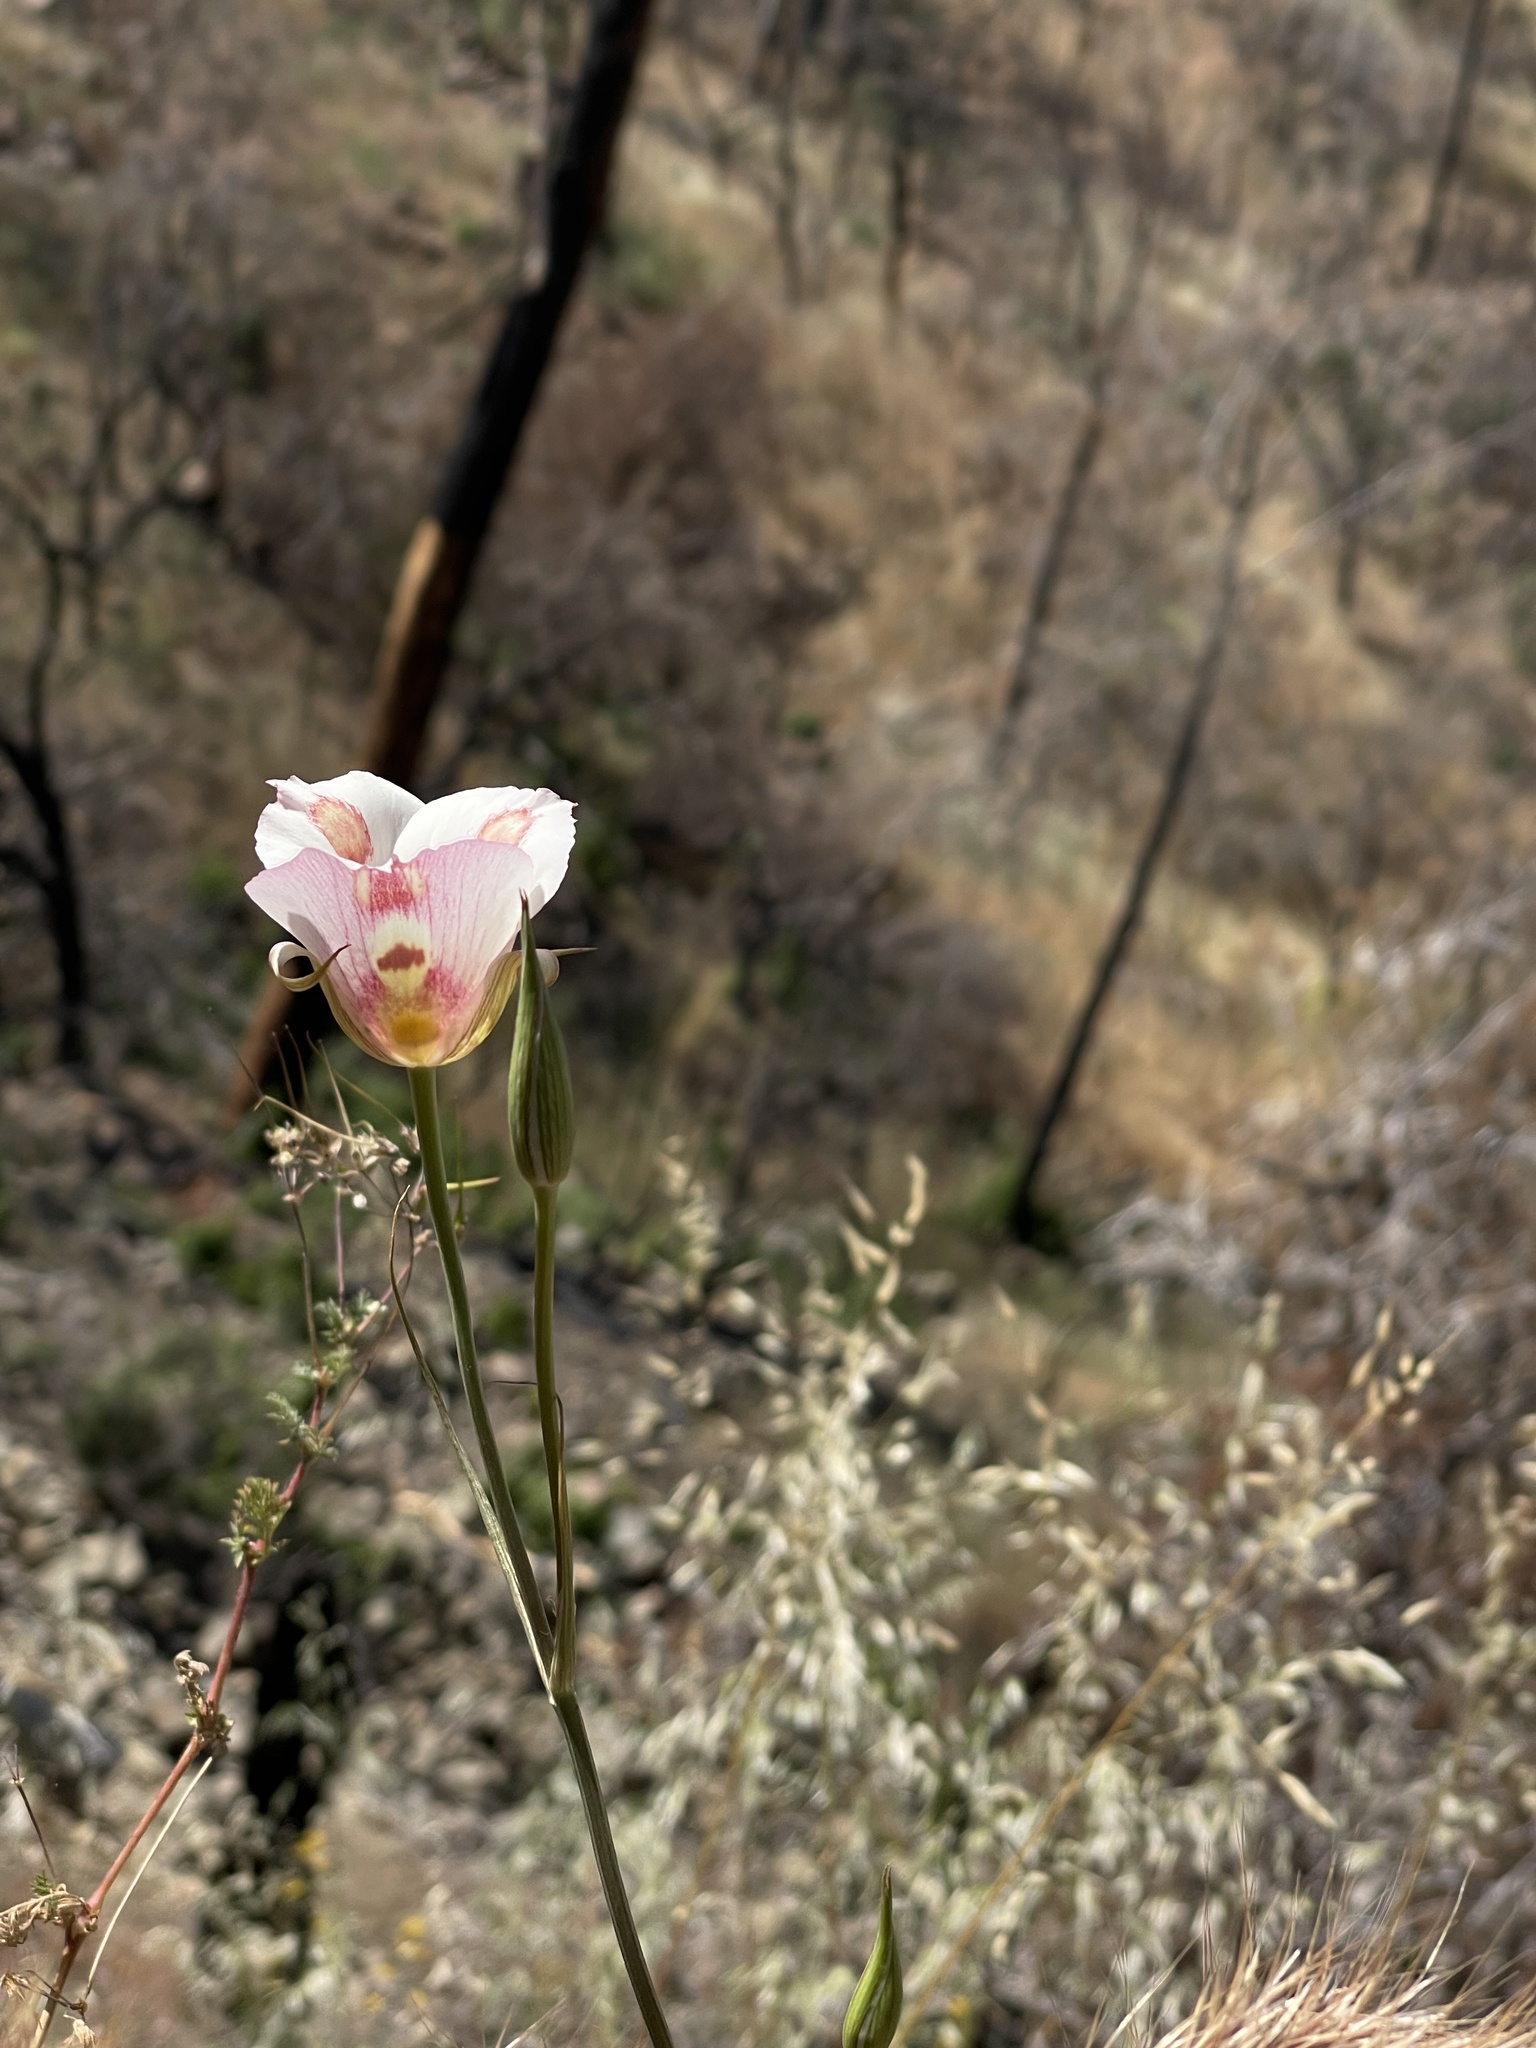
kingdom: Plantae
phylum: Tracheophyta
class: Liliopsida
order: Liliales
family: Liliaceae
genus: Calochortus
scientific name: Calochortus venustus
